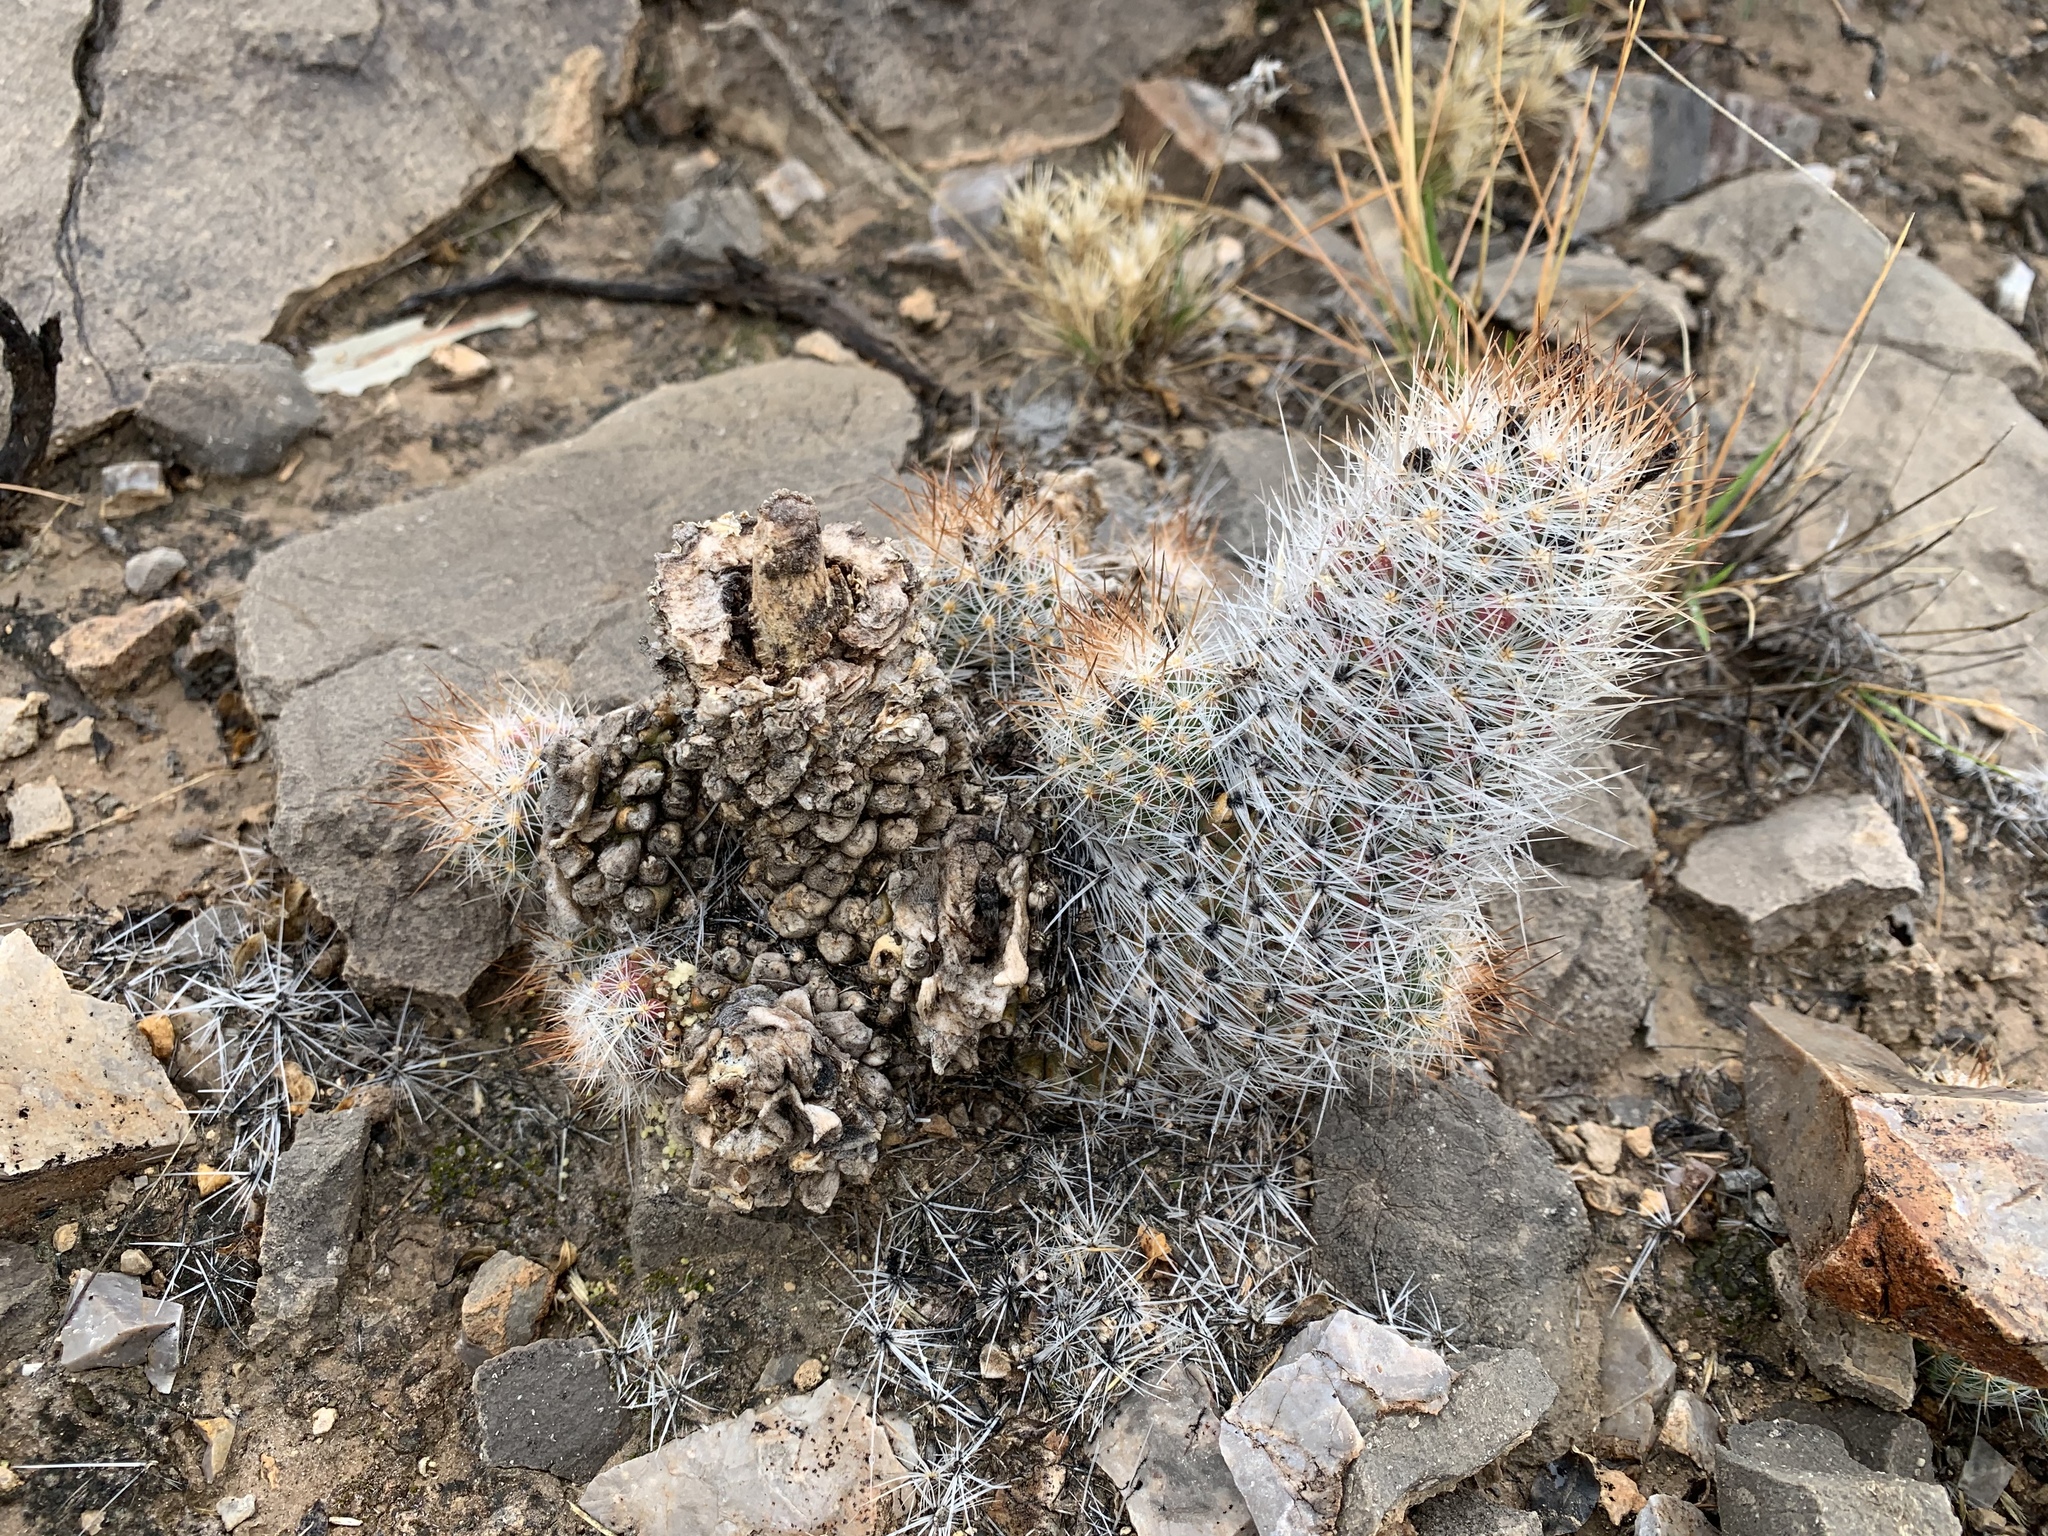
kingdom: Plantae
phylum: Tracheophyta
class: Magnoliopsida
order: Caryophyllales
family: Cactaceae
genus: Pelecyphora
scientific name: Pelecyphora tuberculosa
